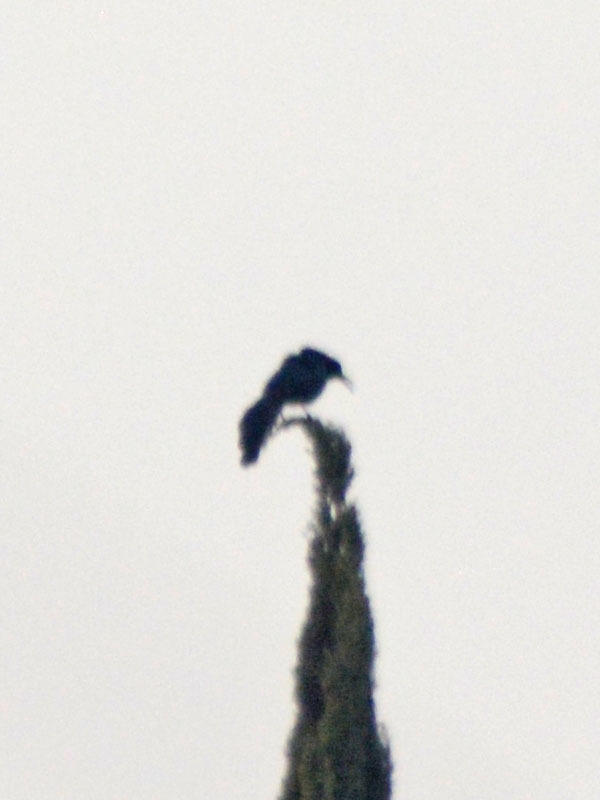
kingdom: Animalia
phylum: Chordata
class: Aves
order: Passeriformes
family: Icteridae
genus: Quiscalus
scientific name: Quiscalus mexicanus
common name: Great-tailed grackle
